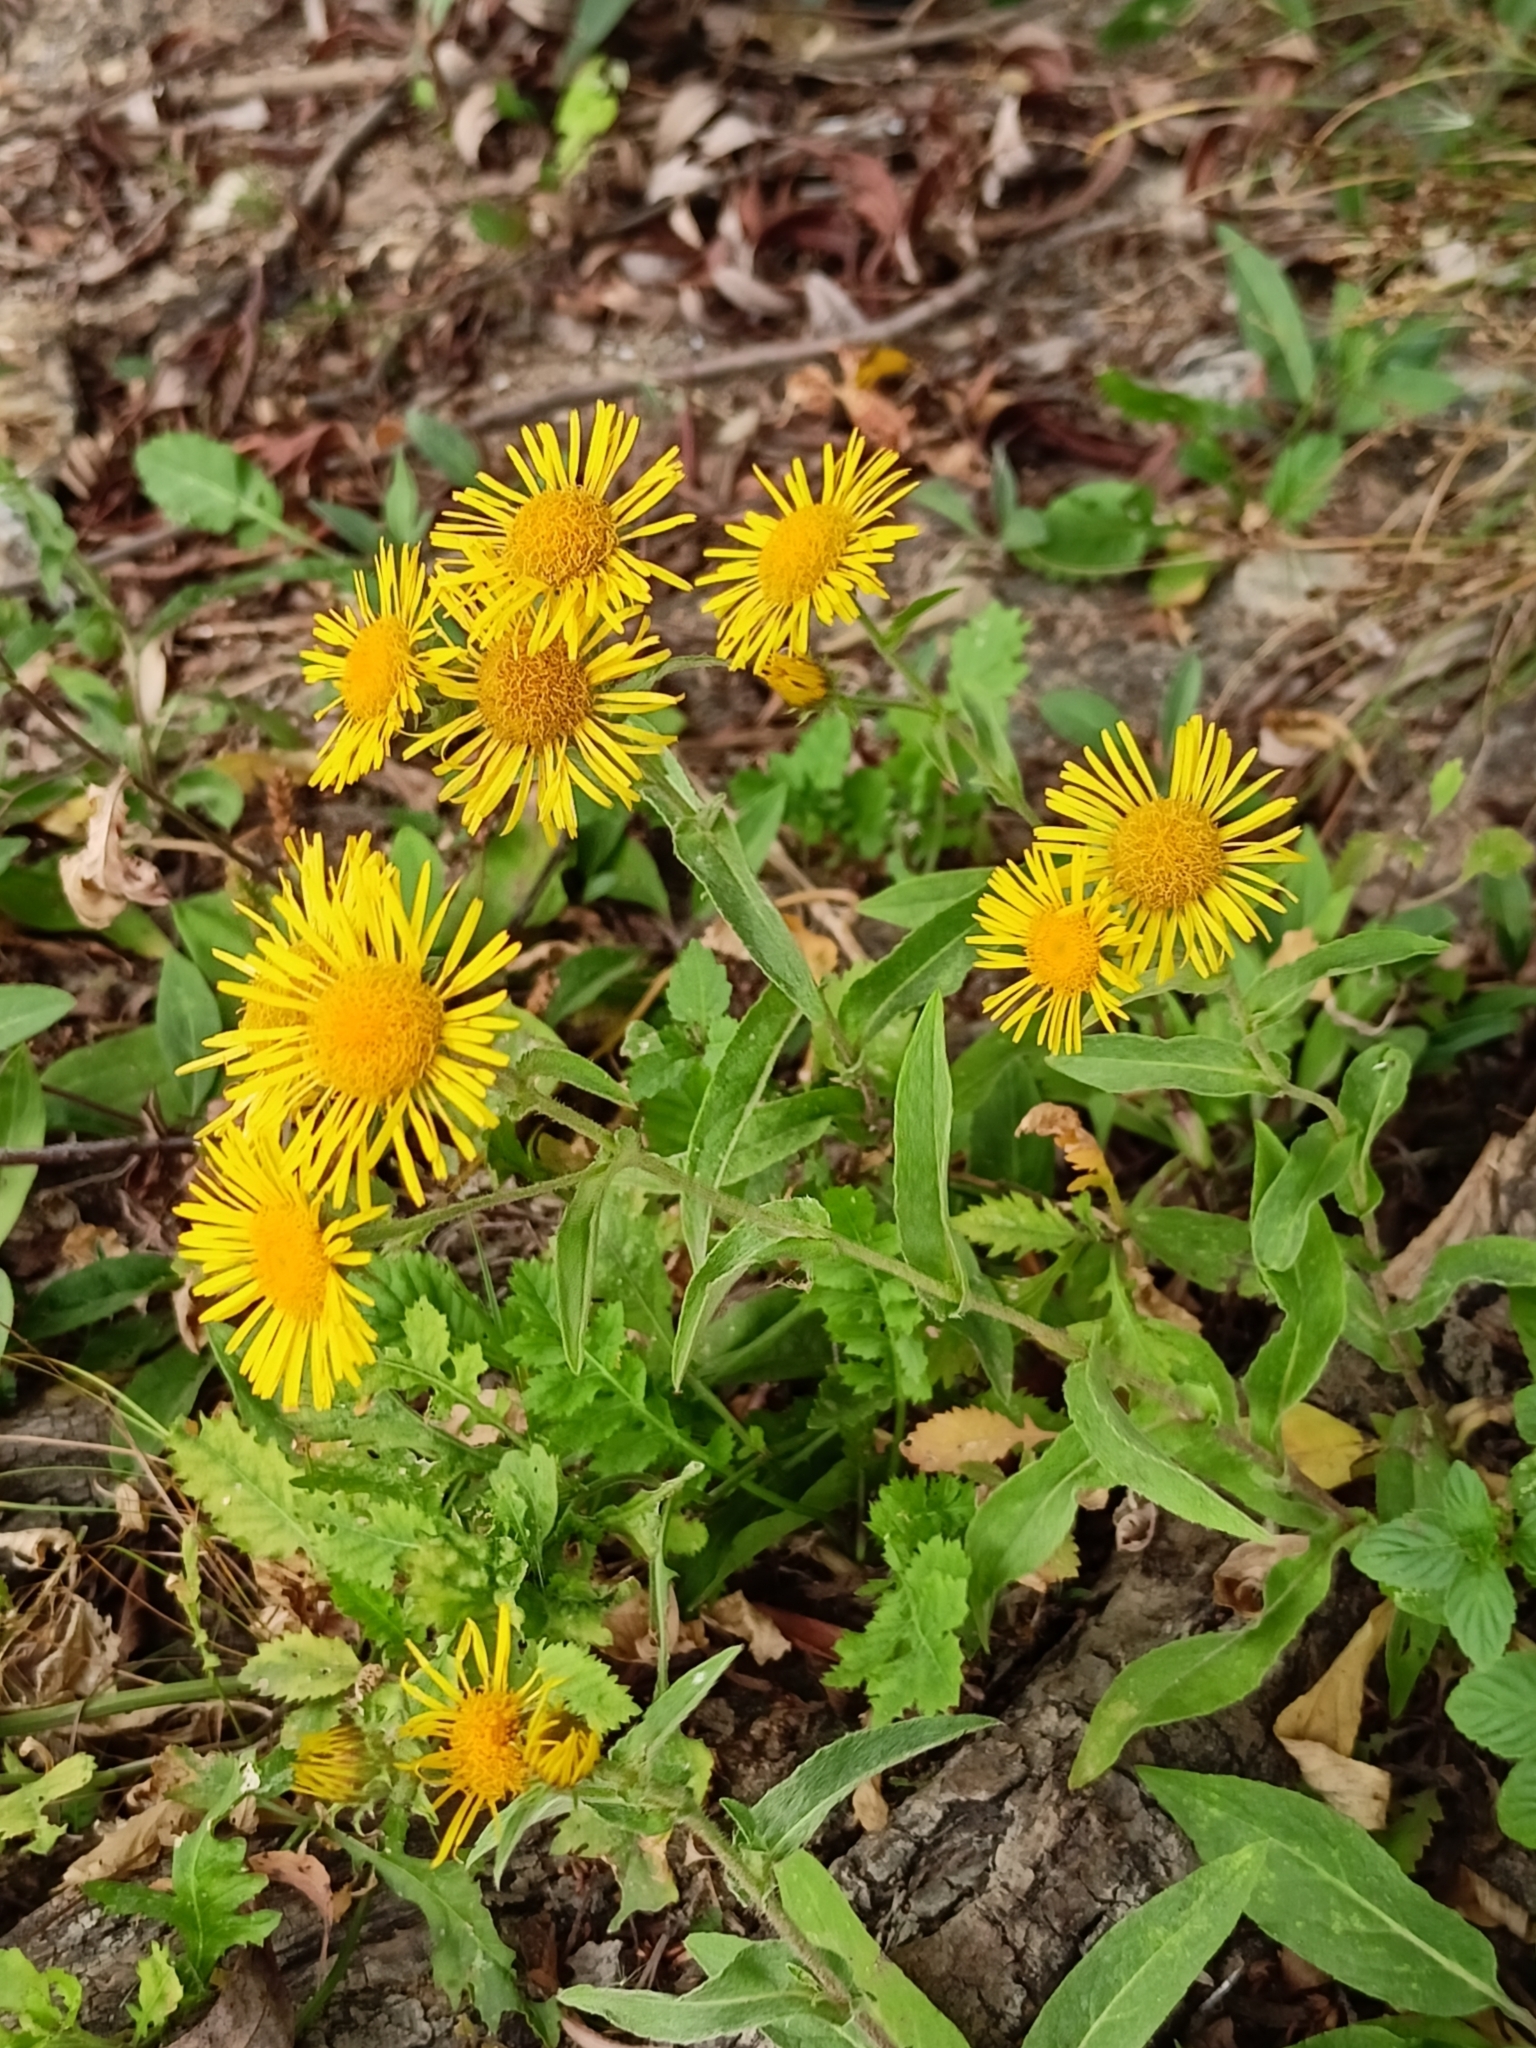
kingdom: Plantae
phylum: Tracheophyta
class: Magnoliopsida
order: Asterales
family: Asteraceae
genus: Pentanema
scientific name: Pentanema britannicum
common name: British elecampane
